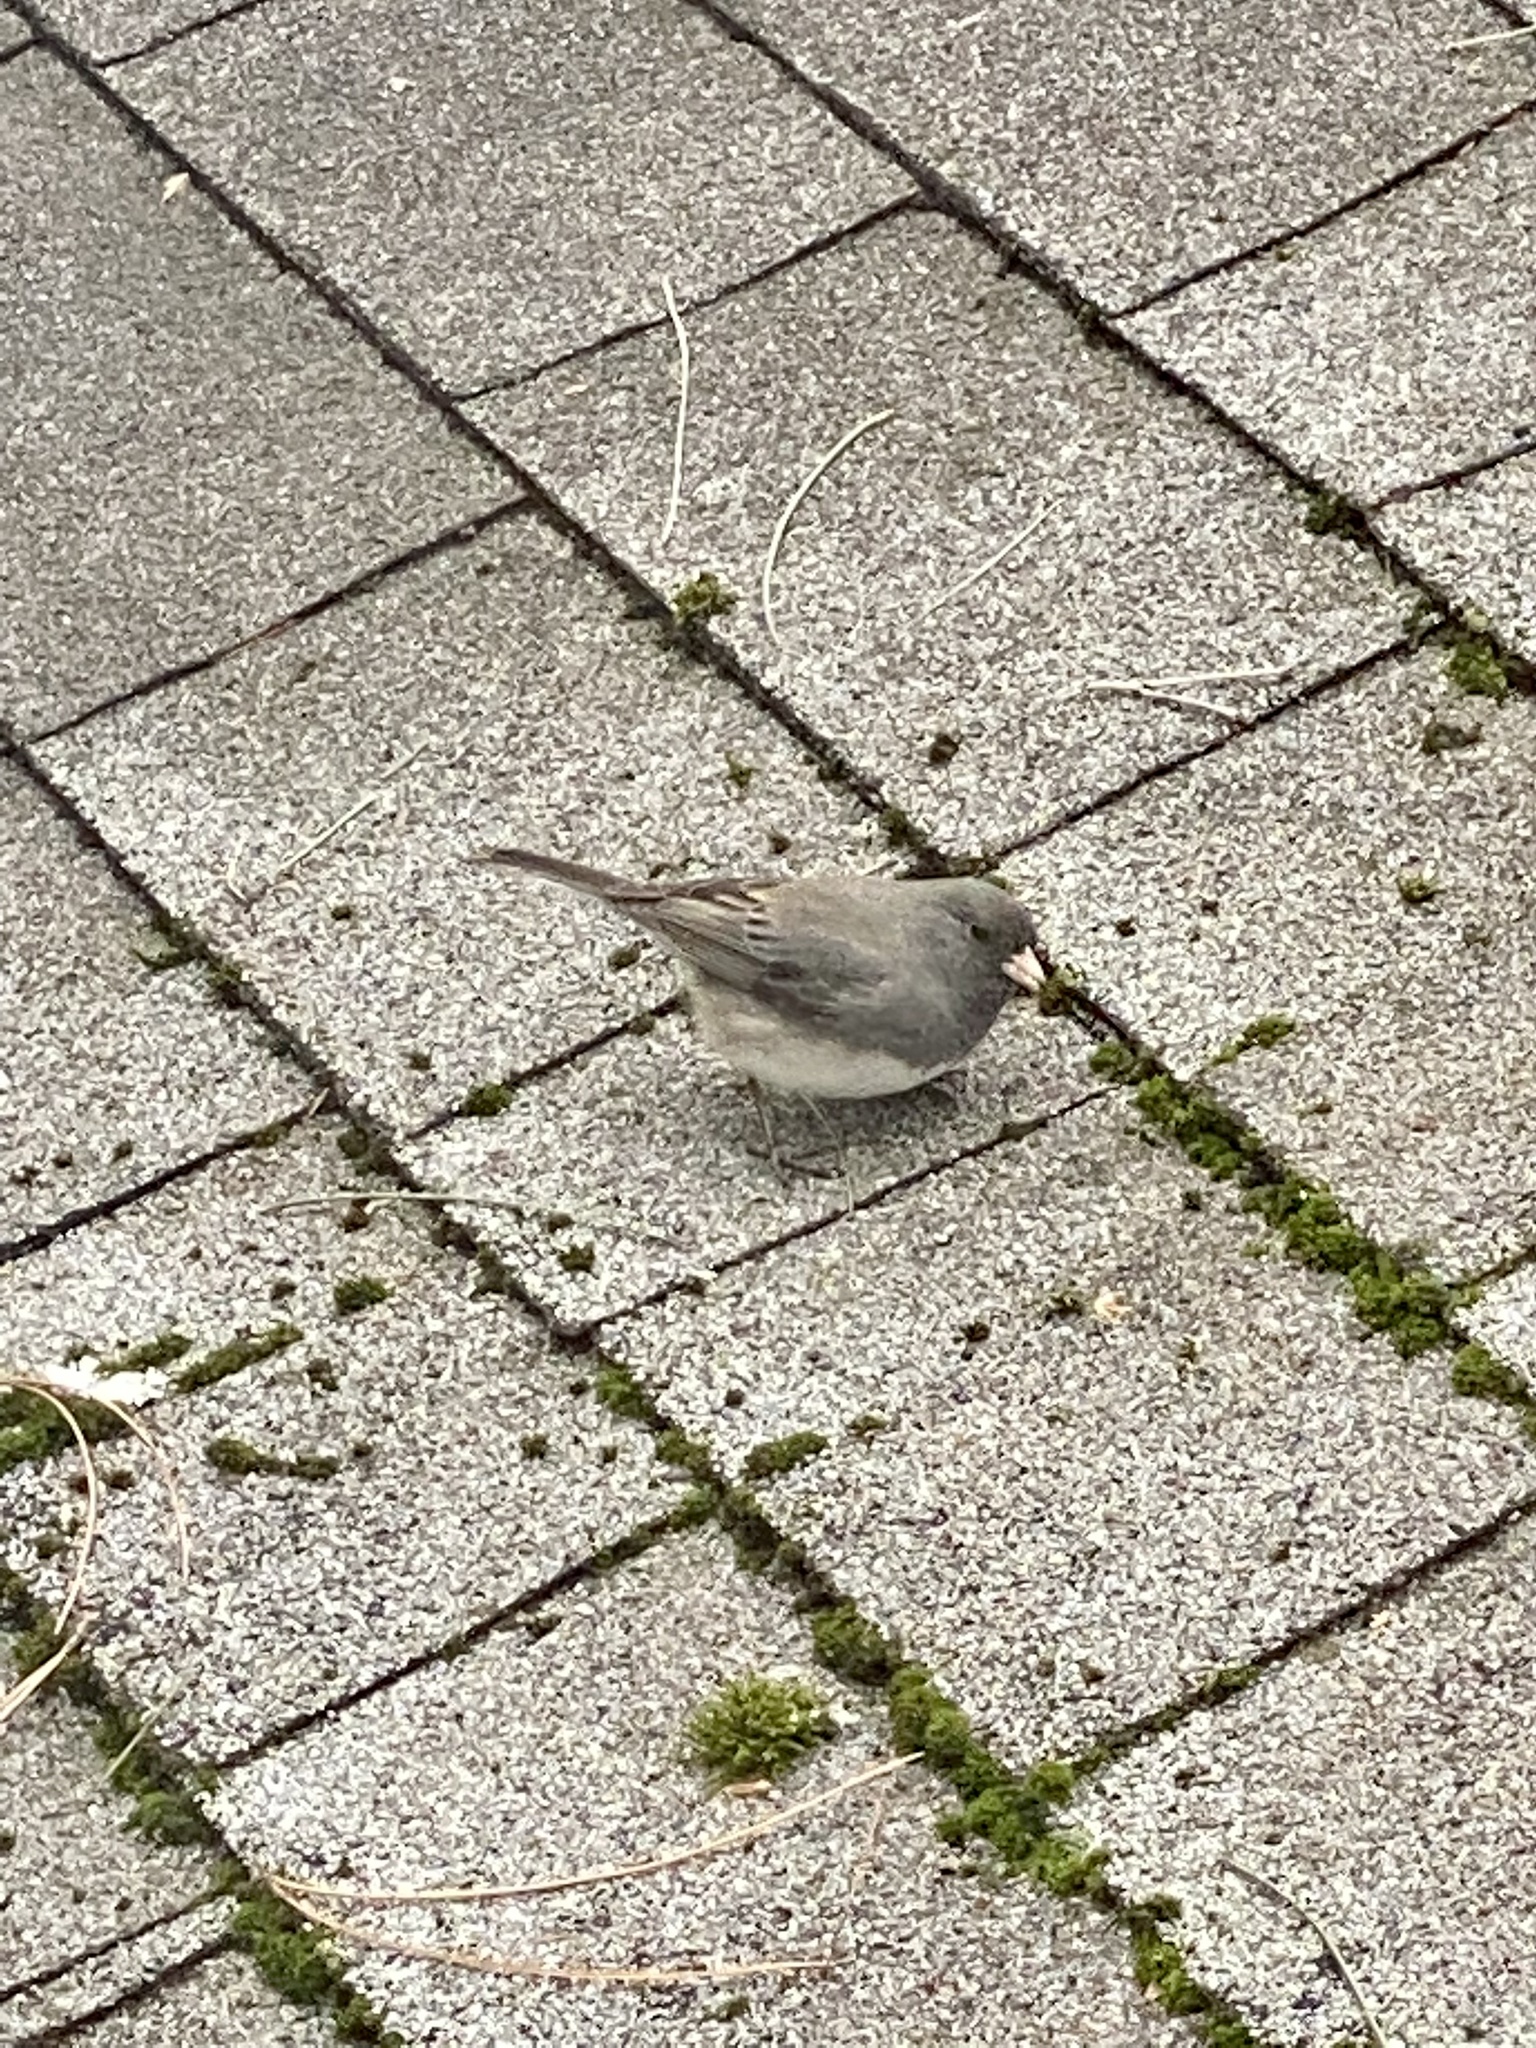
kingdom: Animalia
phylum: Chordata
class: Aves
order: Passeriformes
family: Passerellidae
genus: Junco
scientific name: Junco hyemalis
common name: Dark-eyed junco
